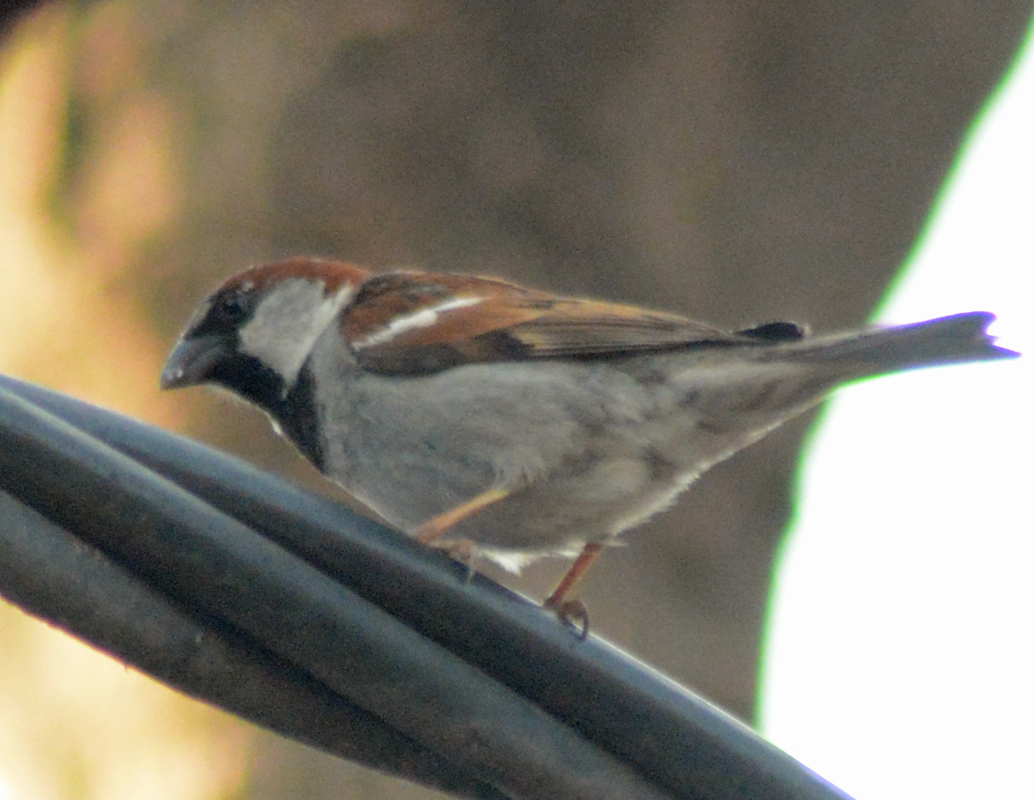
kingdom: Animalia
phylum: Chordata
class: Aves
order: Passeriformes
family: Passeridae
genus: Passer
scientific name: Passer domesticus
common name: House sparrow
